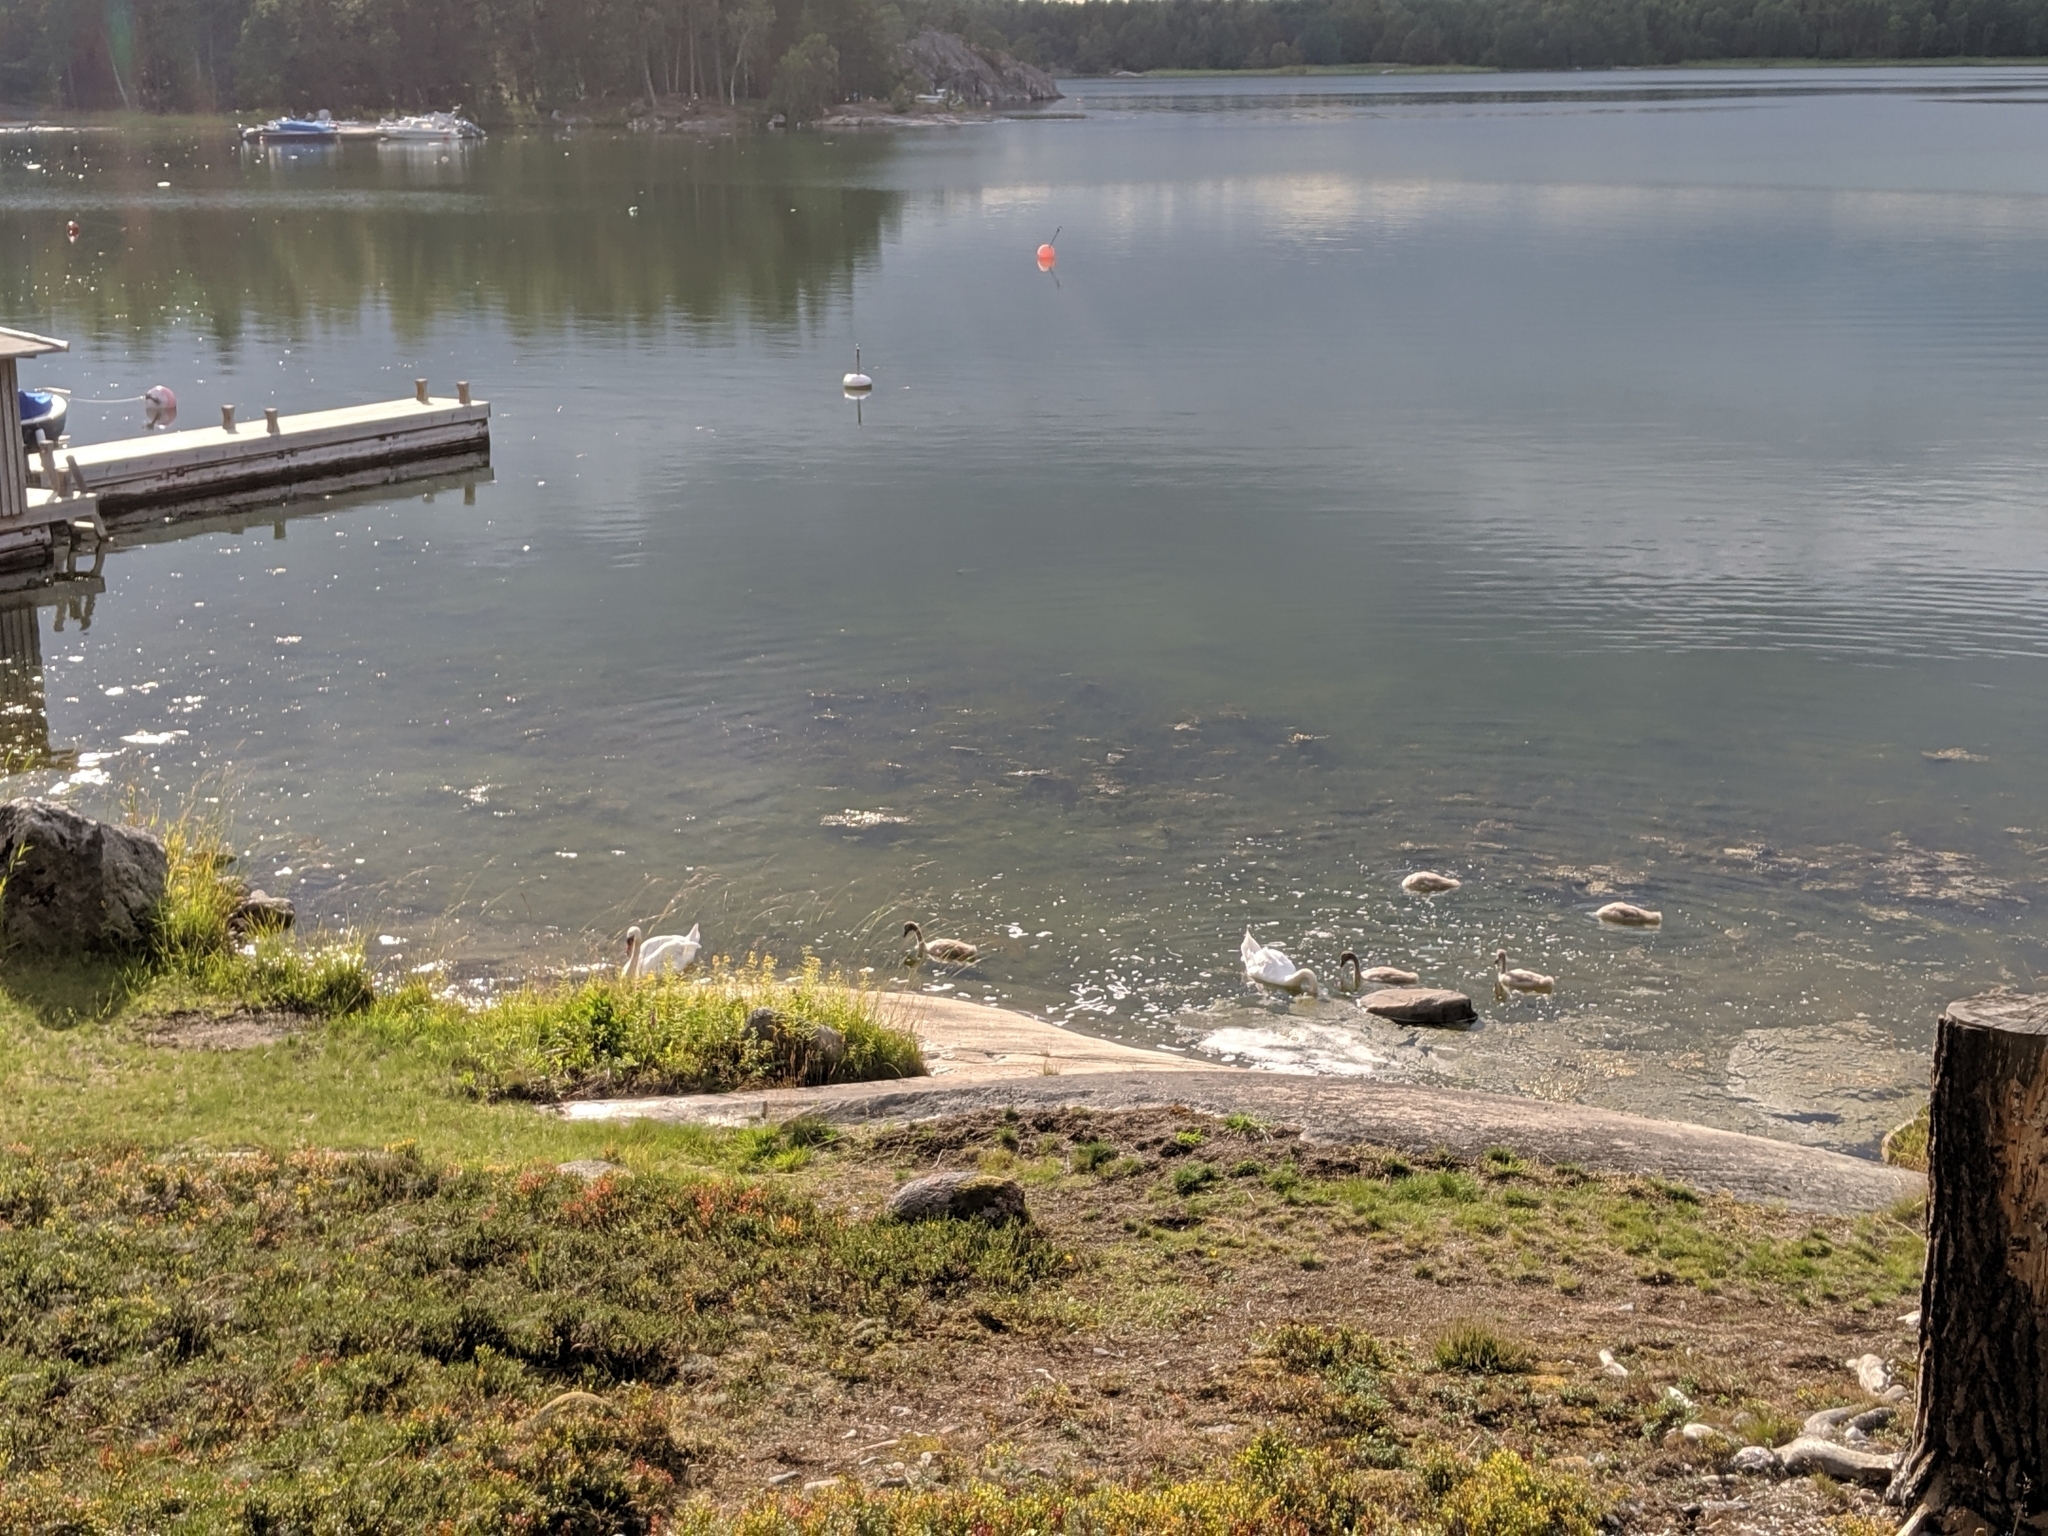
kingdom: Animalia
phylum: Chordata
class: Aves
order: Anseriformes
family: Anatidae
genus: Cygnus
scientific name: Cygnus olor
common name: Mute swan
